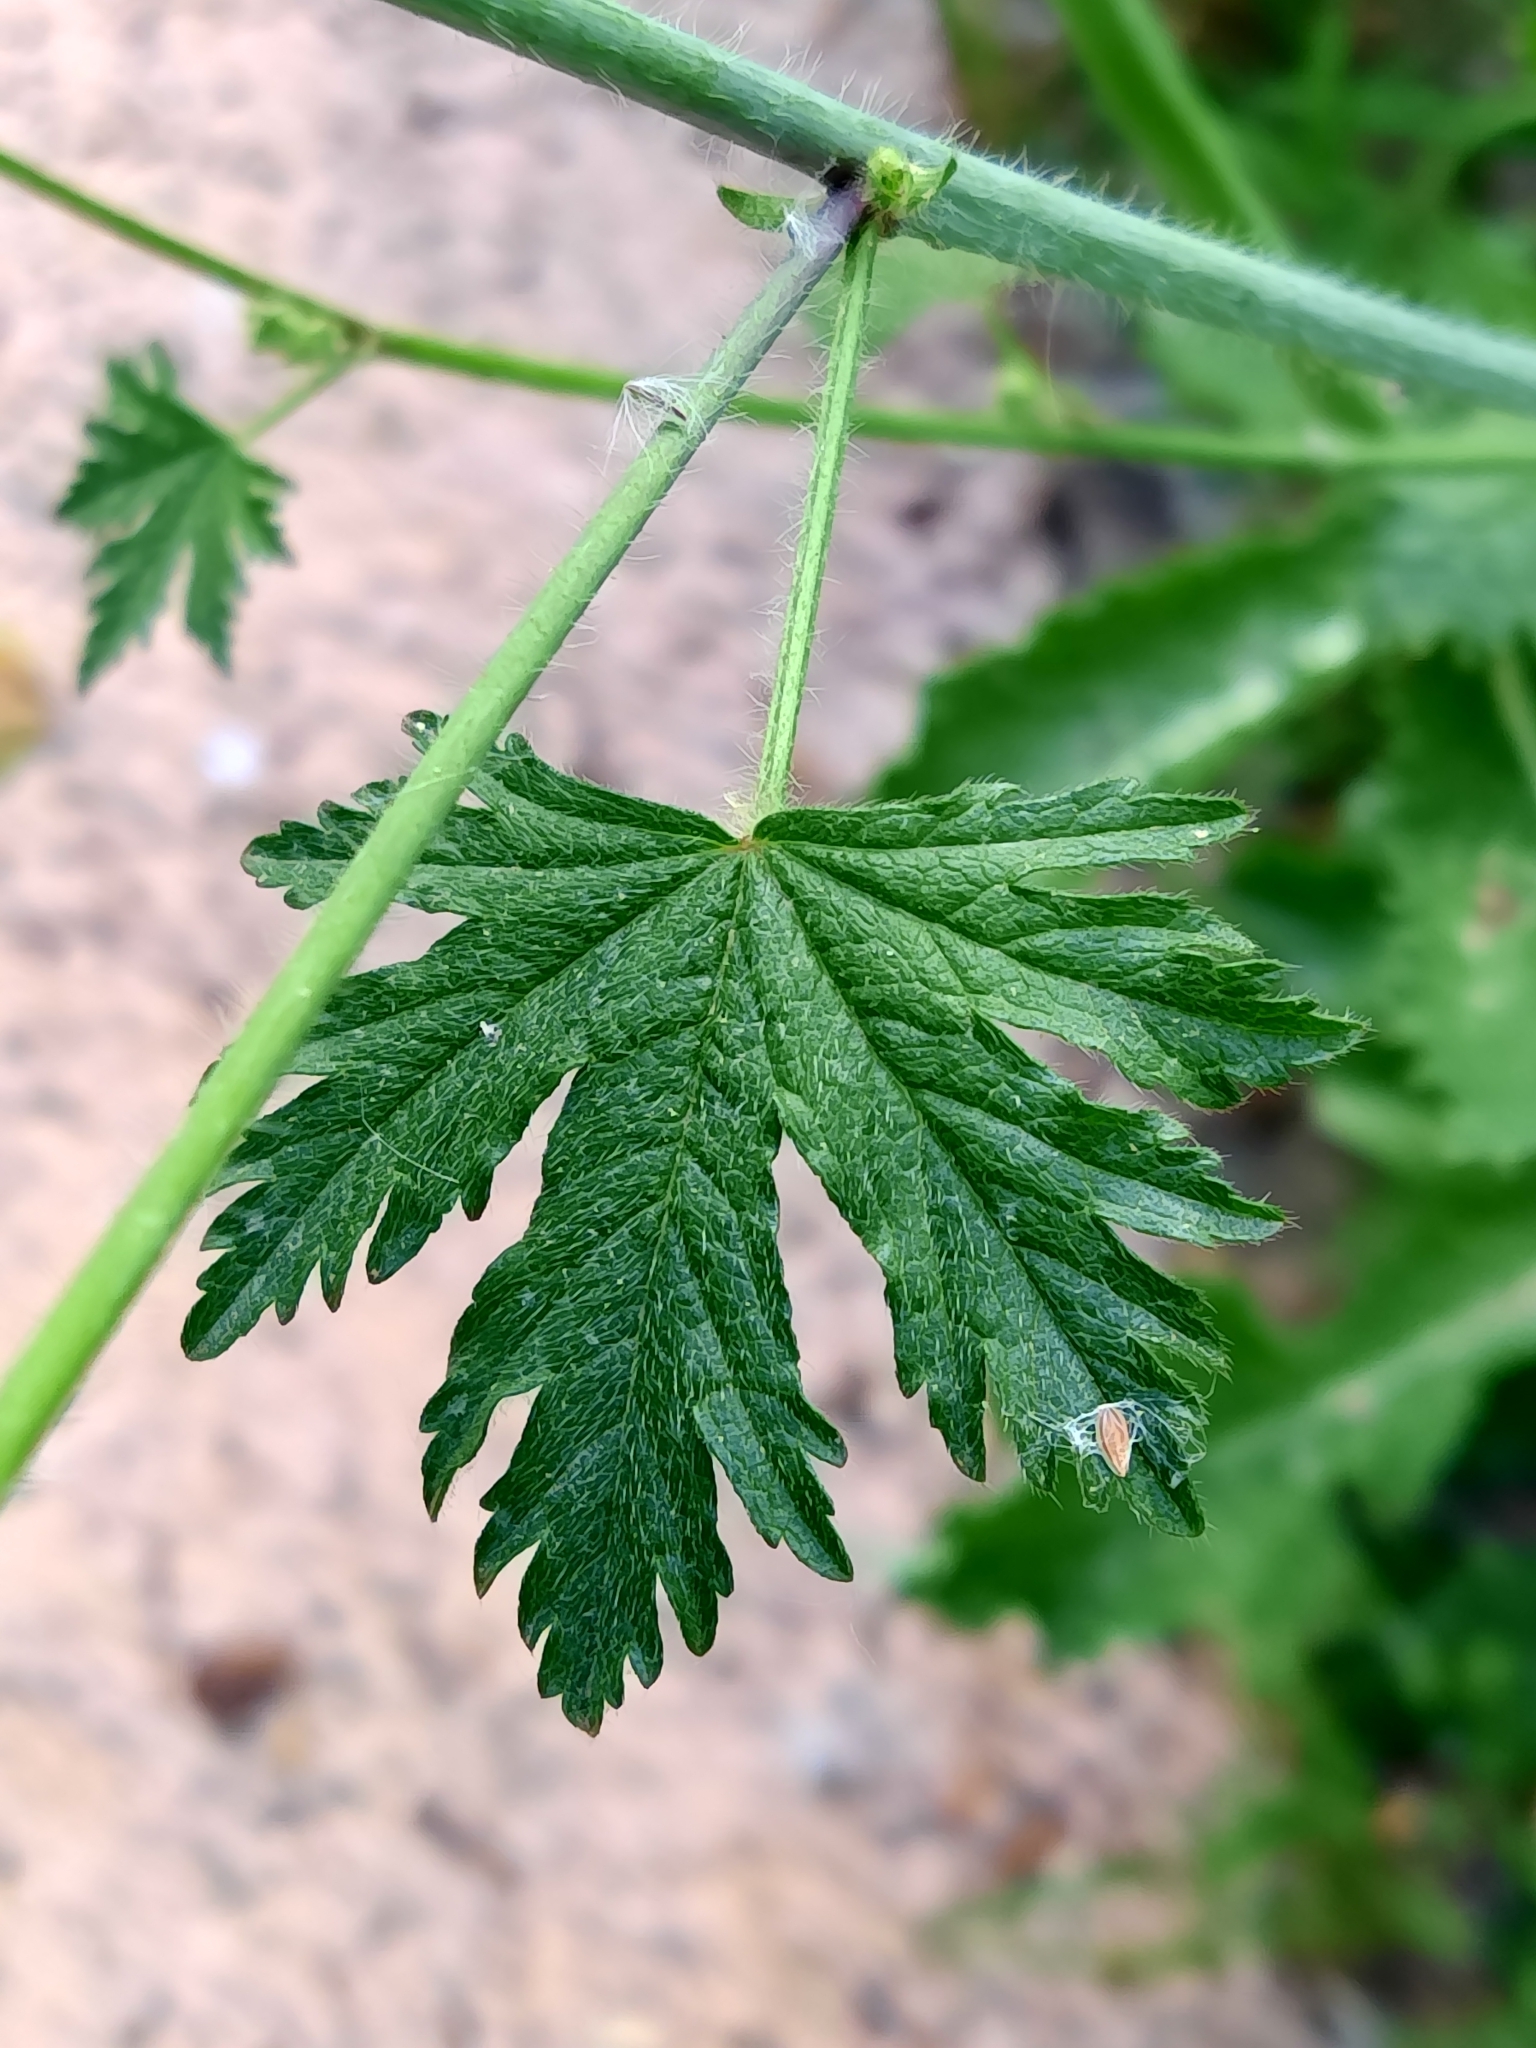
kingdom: Plantae
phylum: Tracheophyta
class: Magnoliopsida
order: Malvales
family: Malvaceae
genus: Malva
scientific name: Malva tournefortiana
